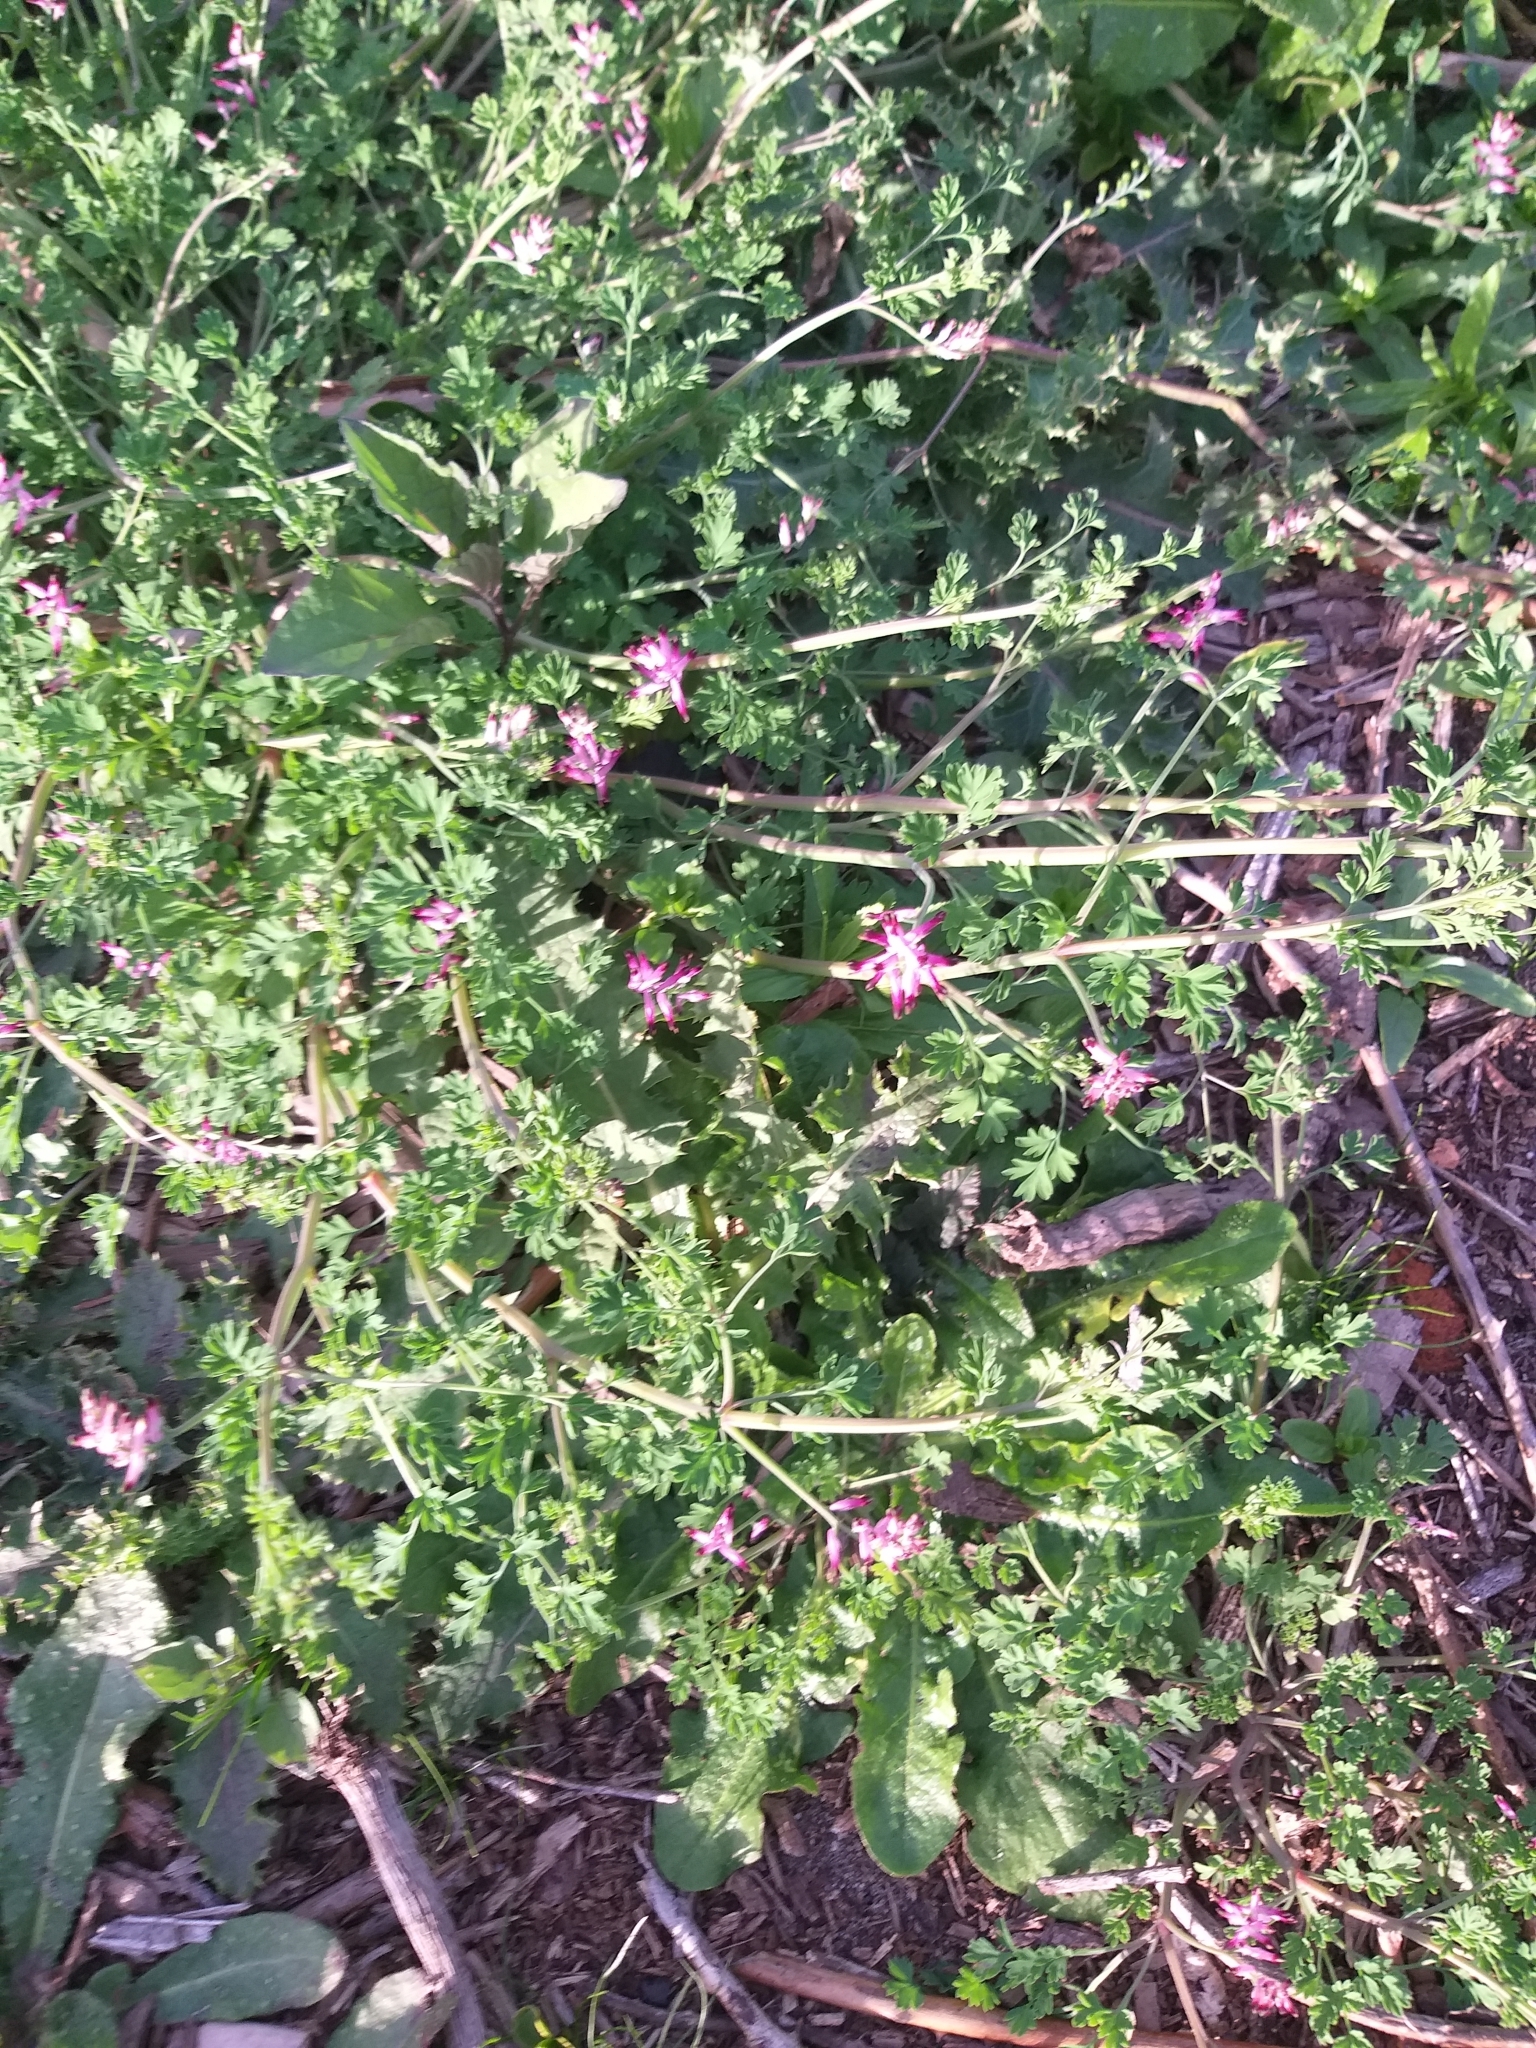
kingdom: Plantae
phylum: Tracheophyta
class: Magnoliopsida
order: Ranunculales
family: Papaveraceae
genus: Fumaria
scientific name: Fumaria muralis
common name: Common ramping-fumitory
